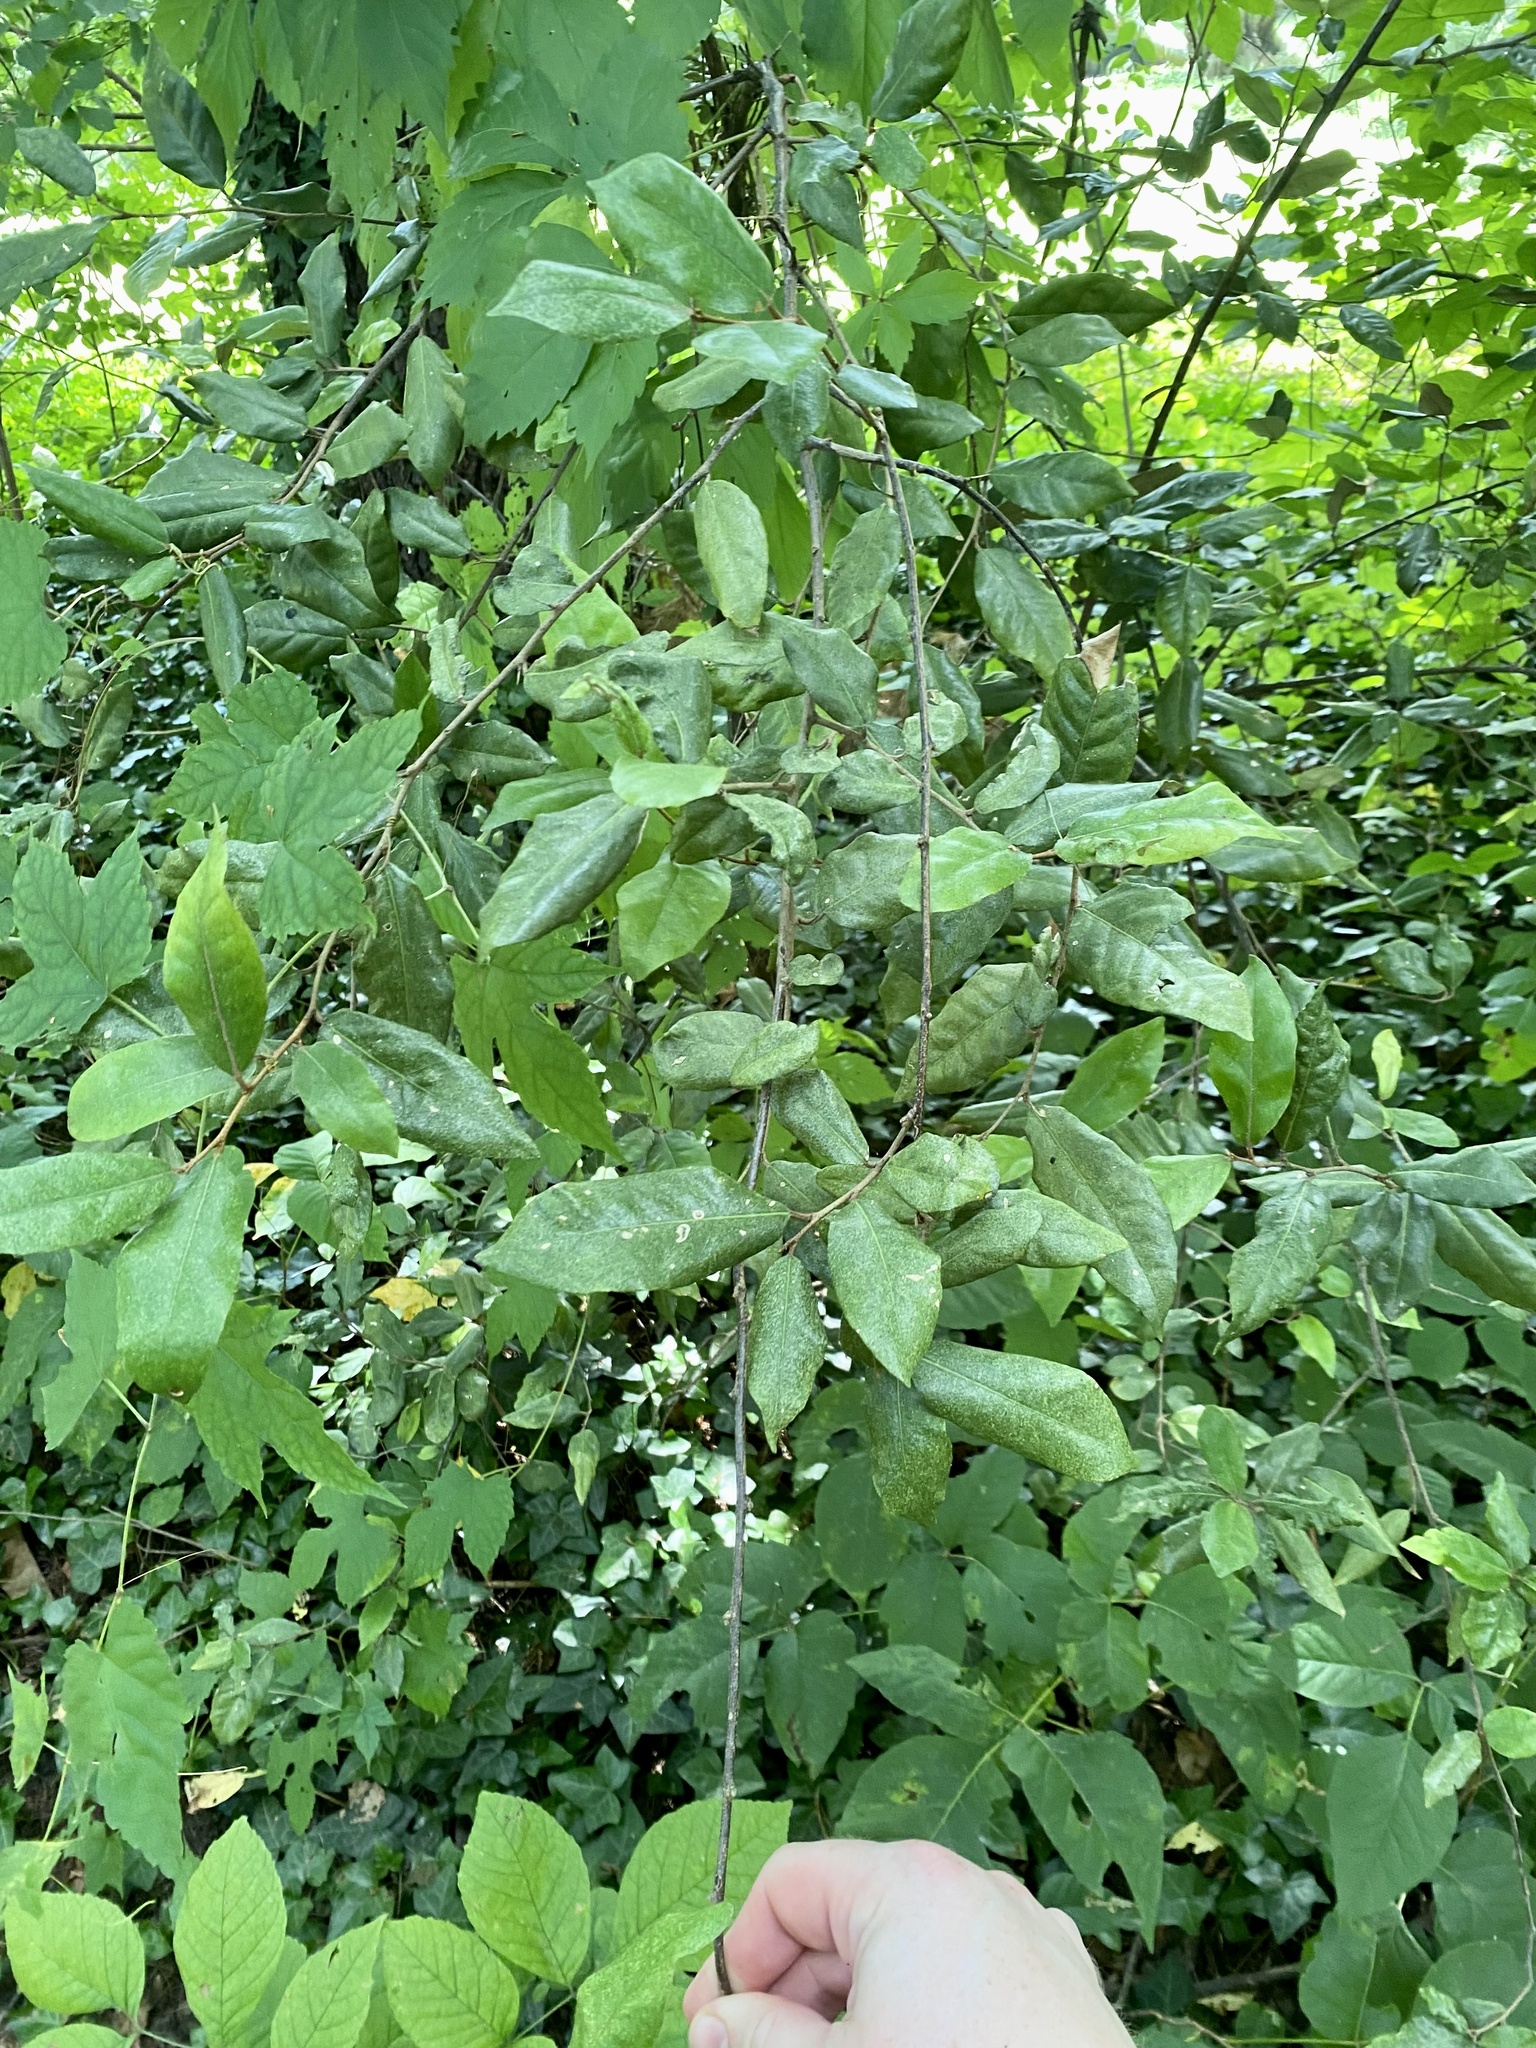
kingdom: Plantae
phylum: Tracheophyta
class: Magnoliopsida
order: Rosales
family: Elaeagnaceae
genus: Elaeagnus
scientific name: Elaeagnus pungens
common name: Spiny oleaster
